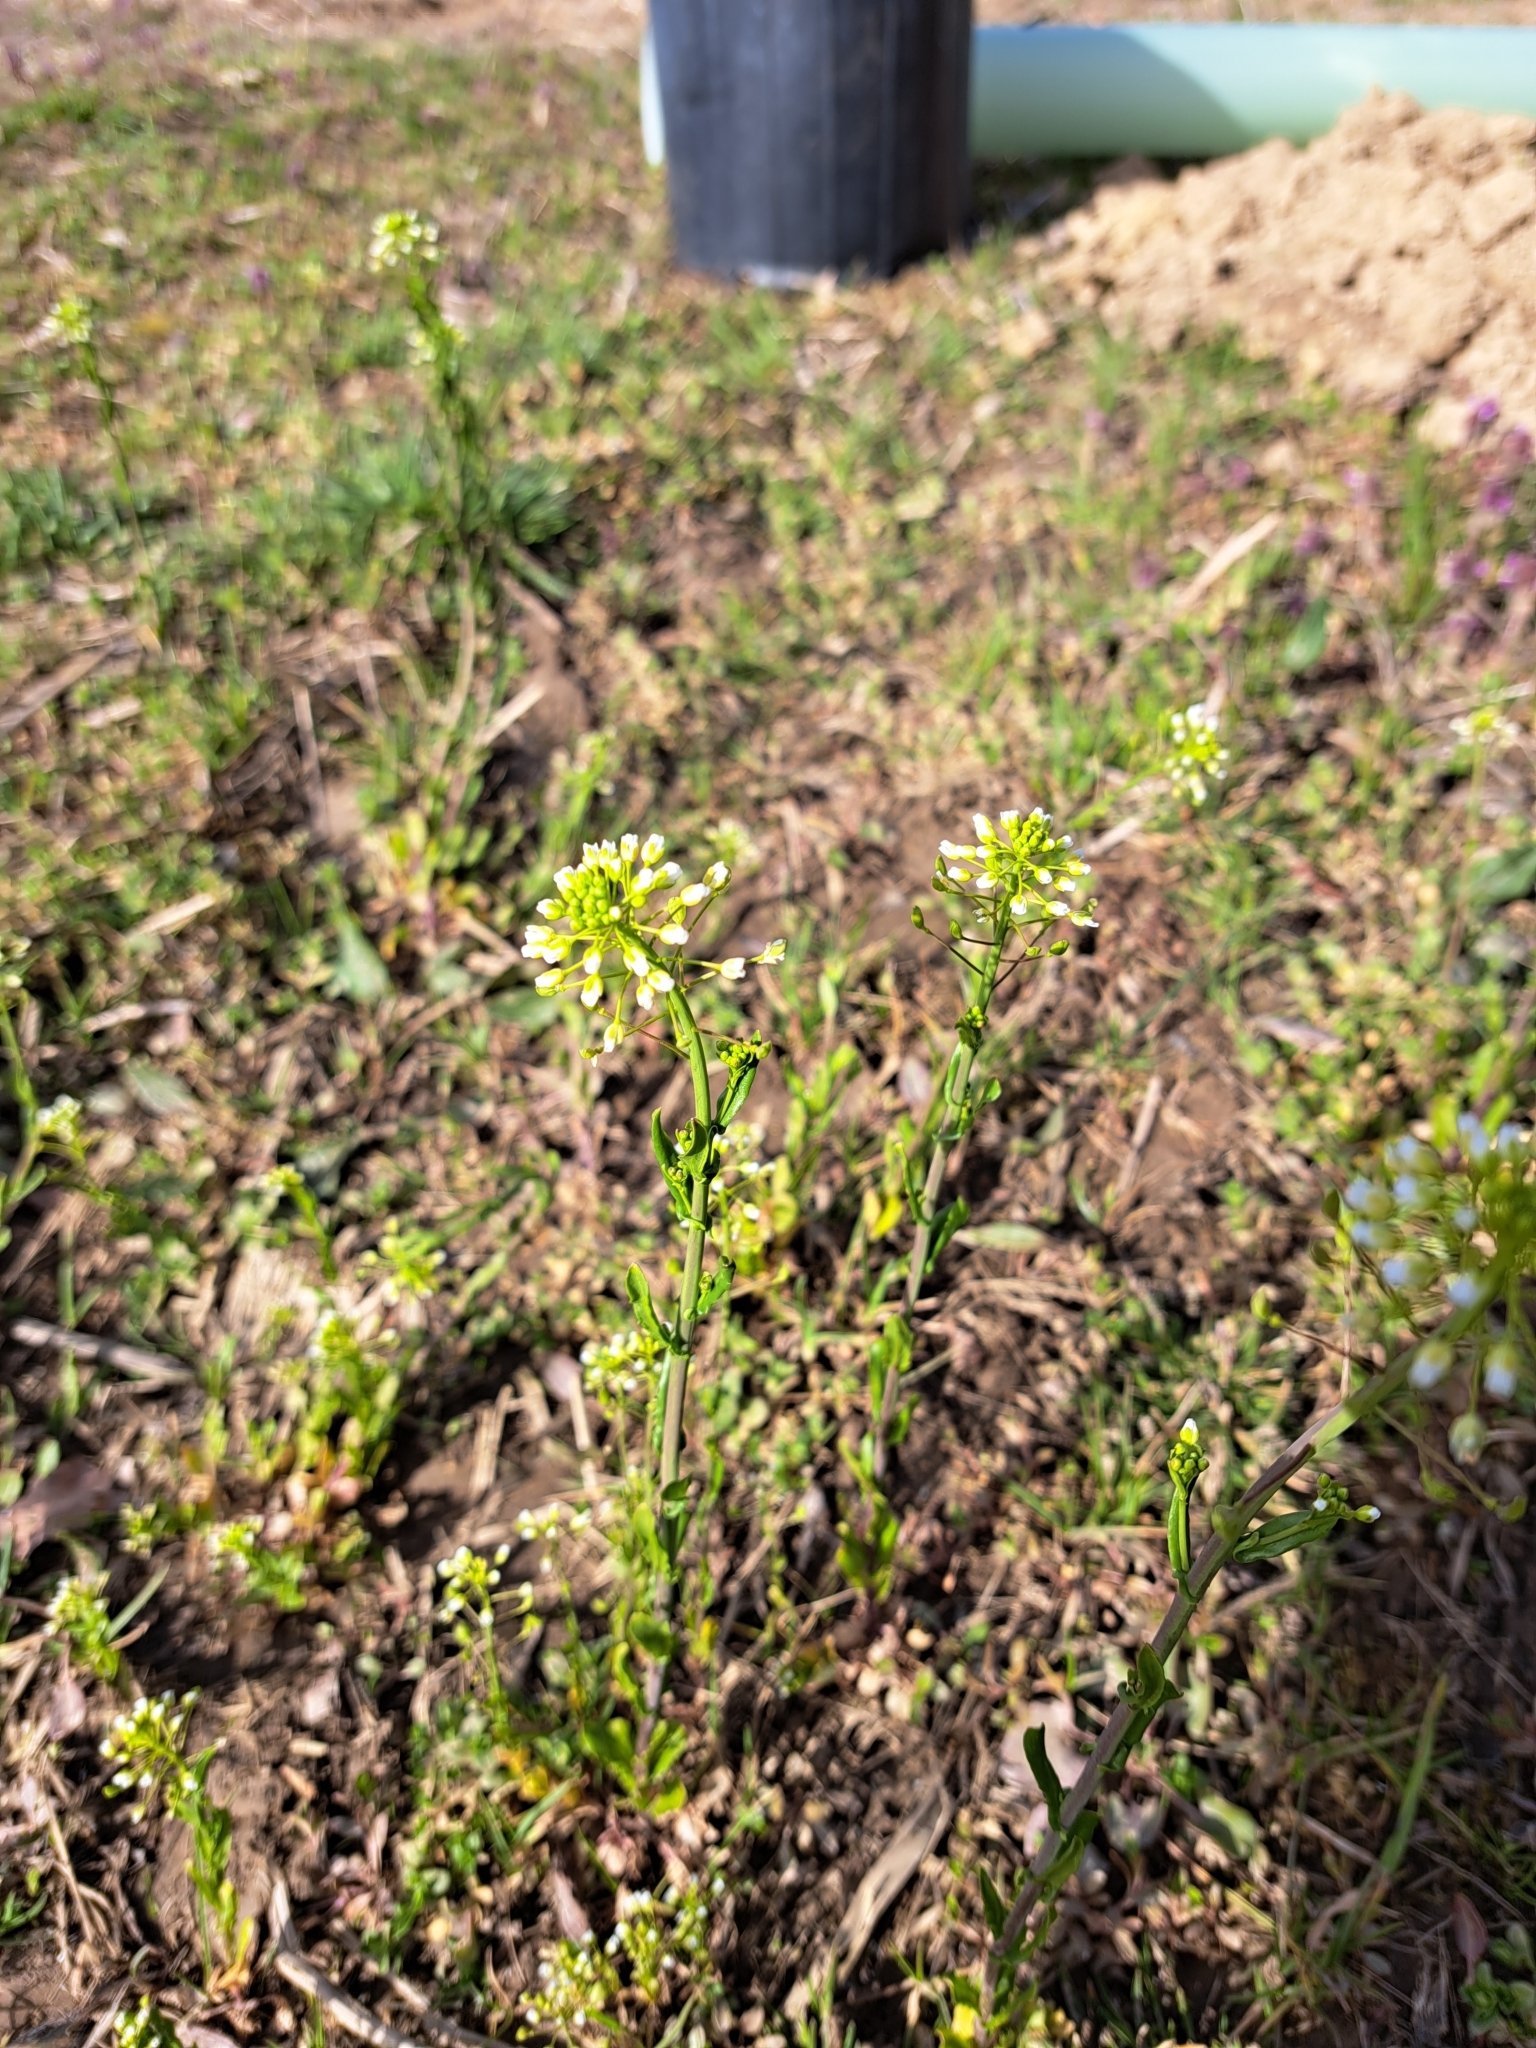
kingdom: Plantae
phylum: Tracheophyta
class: Magnoliopsida
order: Brassicales
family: Brassicaceae
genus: Mummenhoffia
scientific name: Mummenhoffia alliacea
